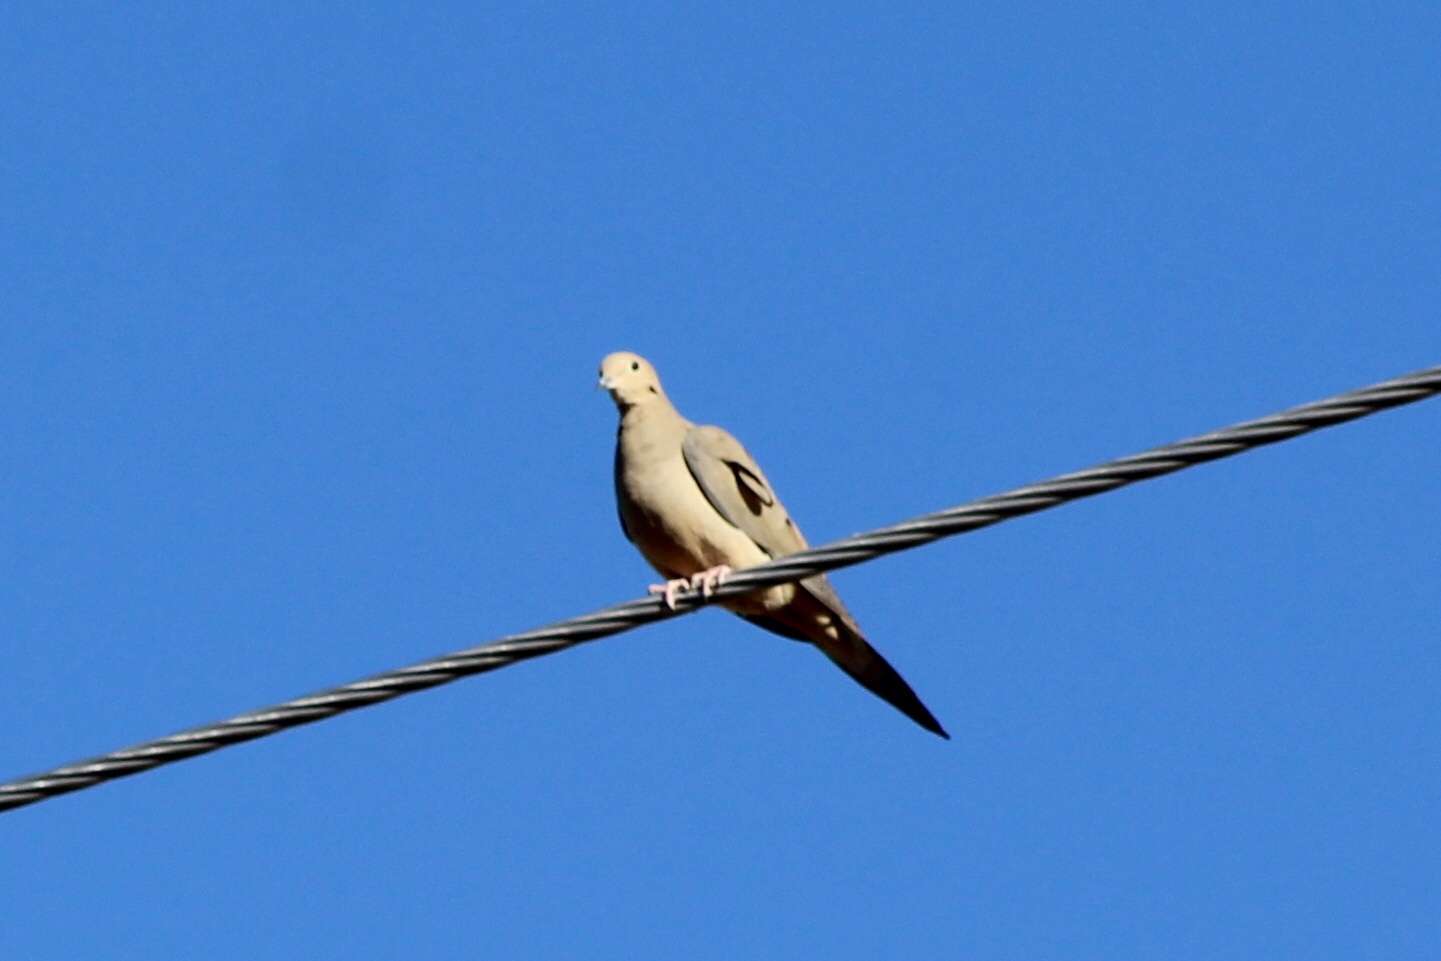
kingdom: Animalia
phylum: Chordata
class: Aves
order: Columbiformes
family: Columbidae
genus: Zenaida
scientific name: Zenaida macroura
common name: Mourning dove
